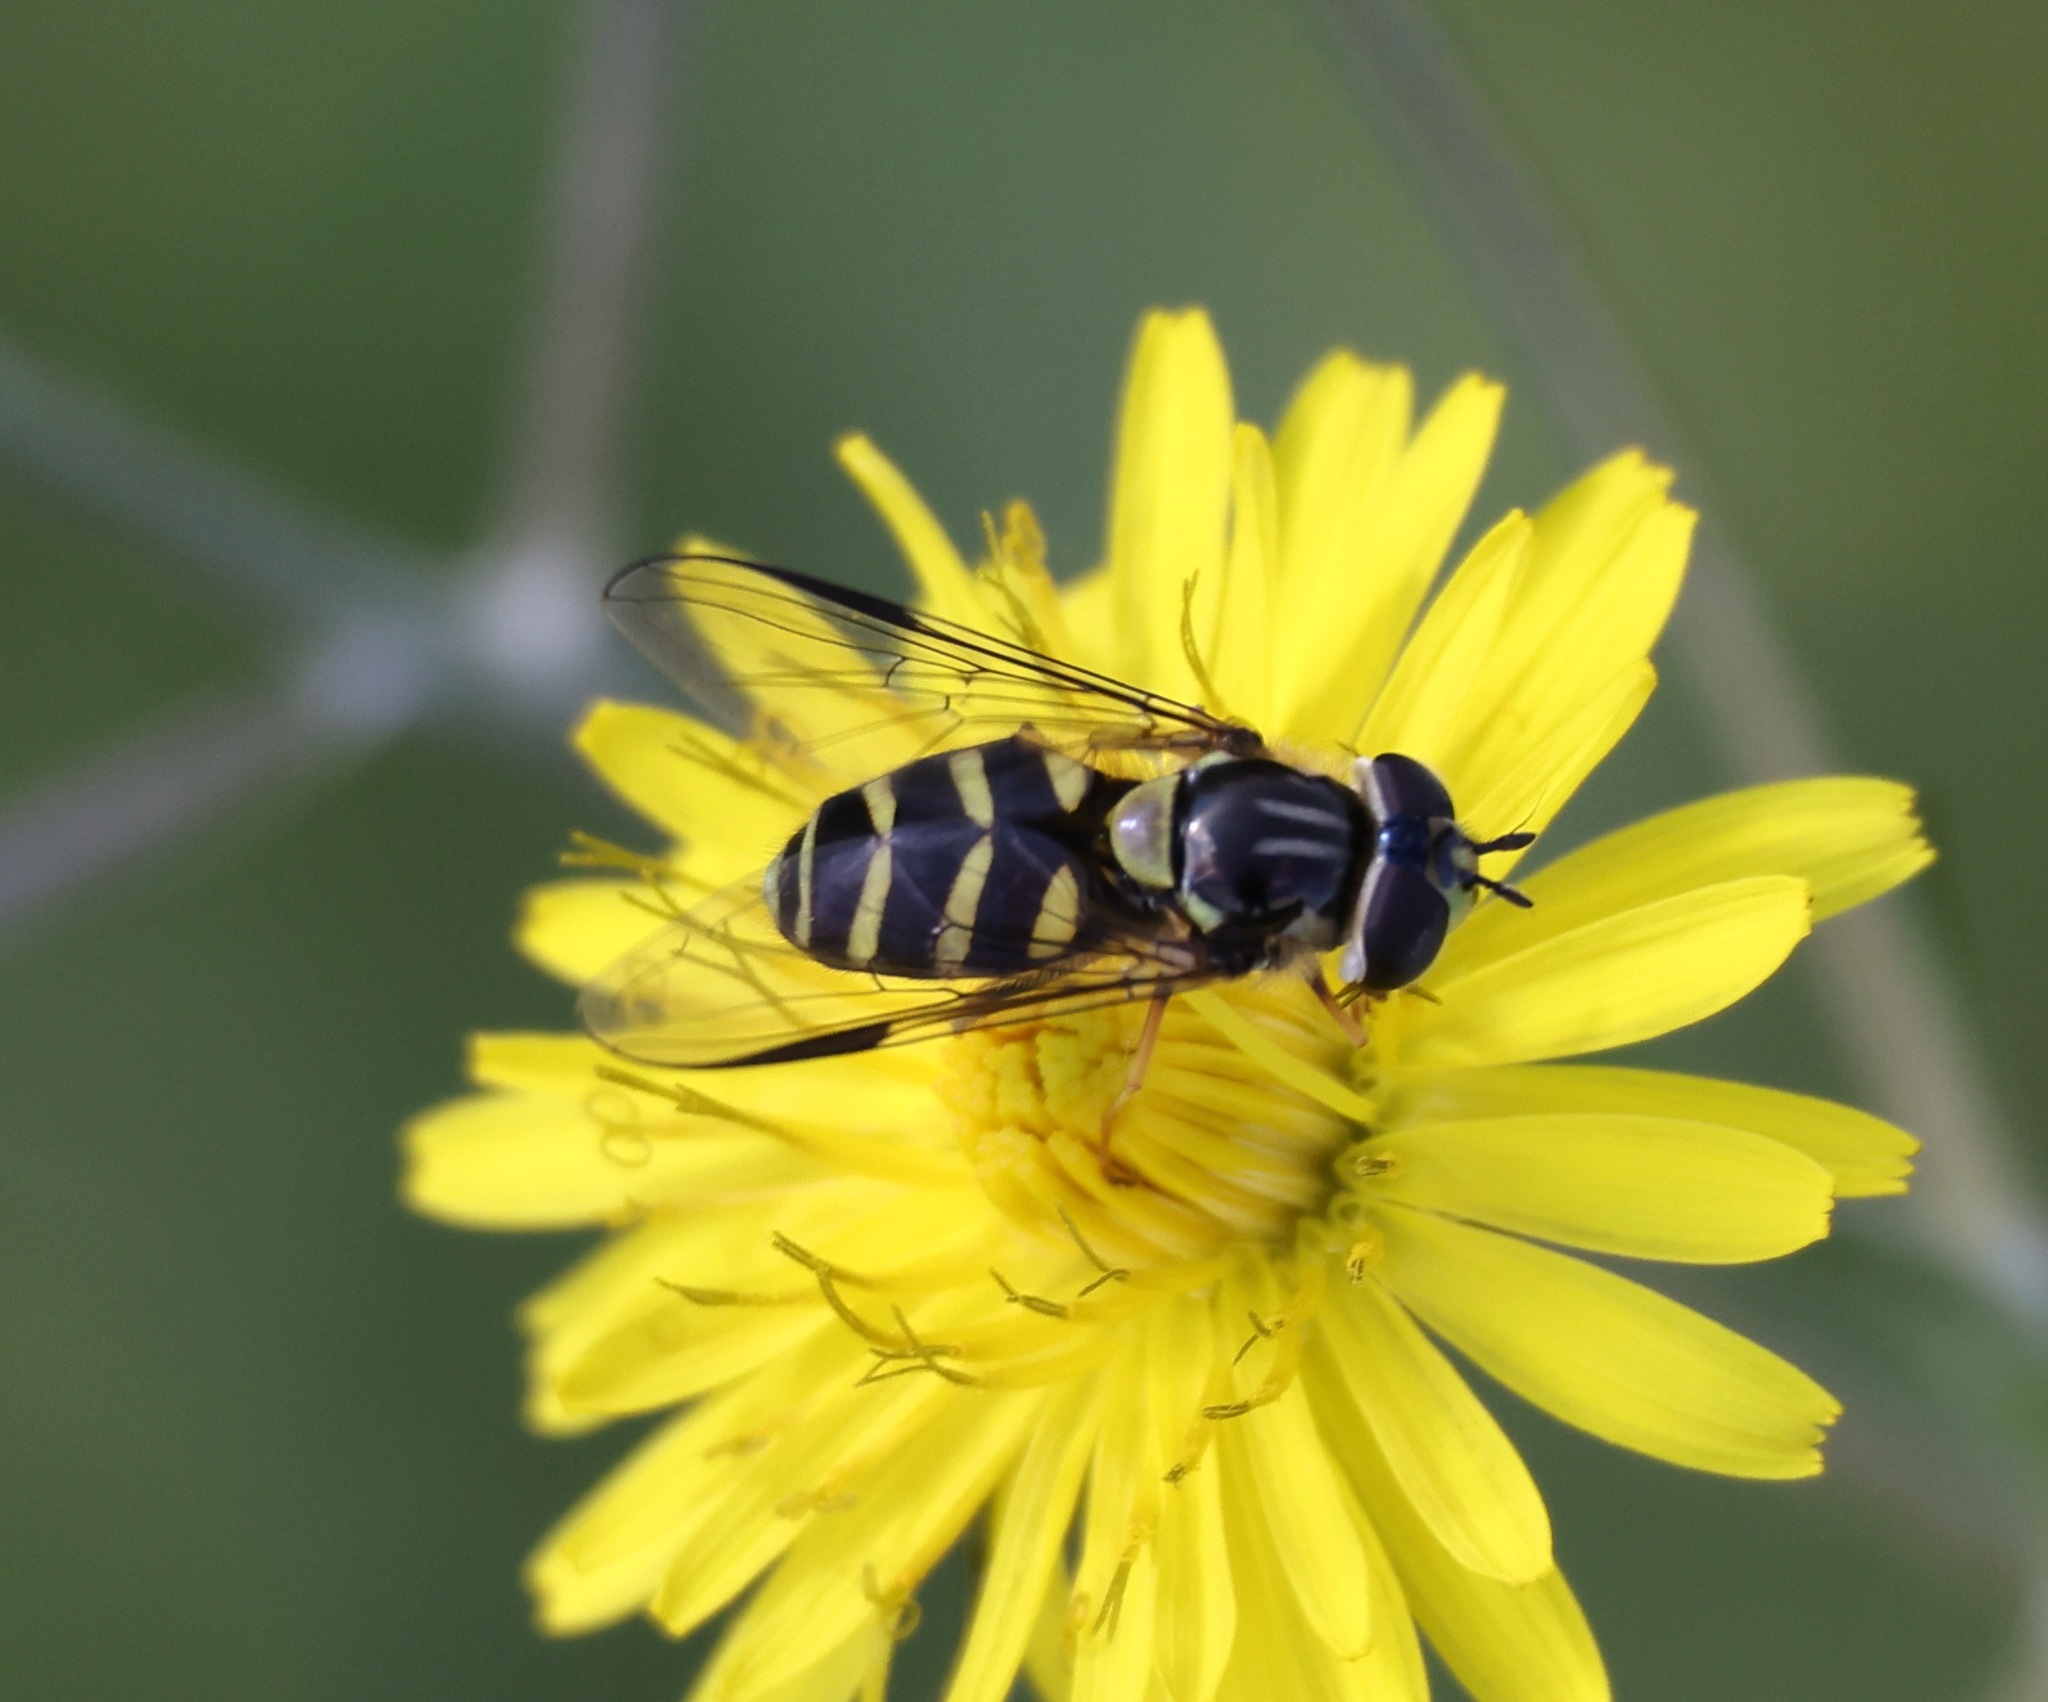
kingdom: Animalia
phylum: Arthropoda
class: Insecta
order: Diptera
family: Syrphidae
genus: Dasysyrphus
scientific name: Dasysyrphus albostriatus
